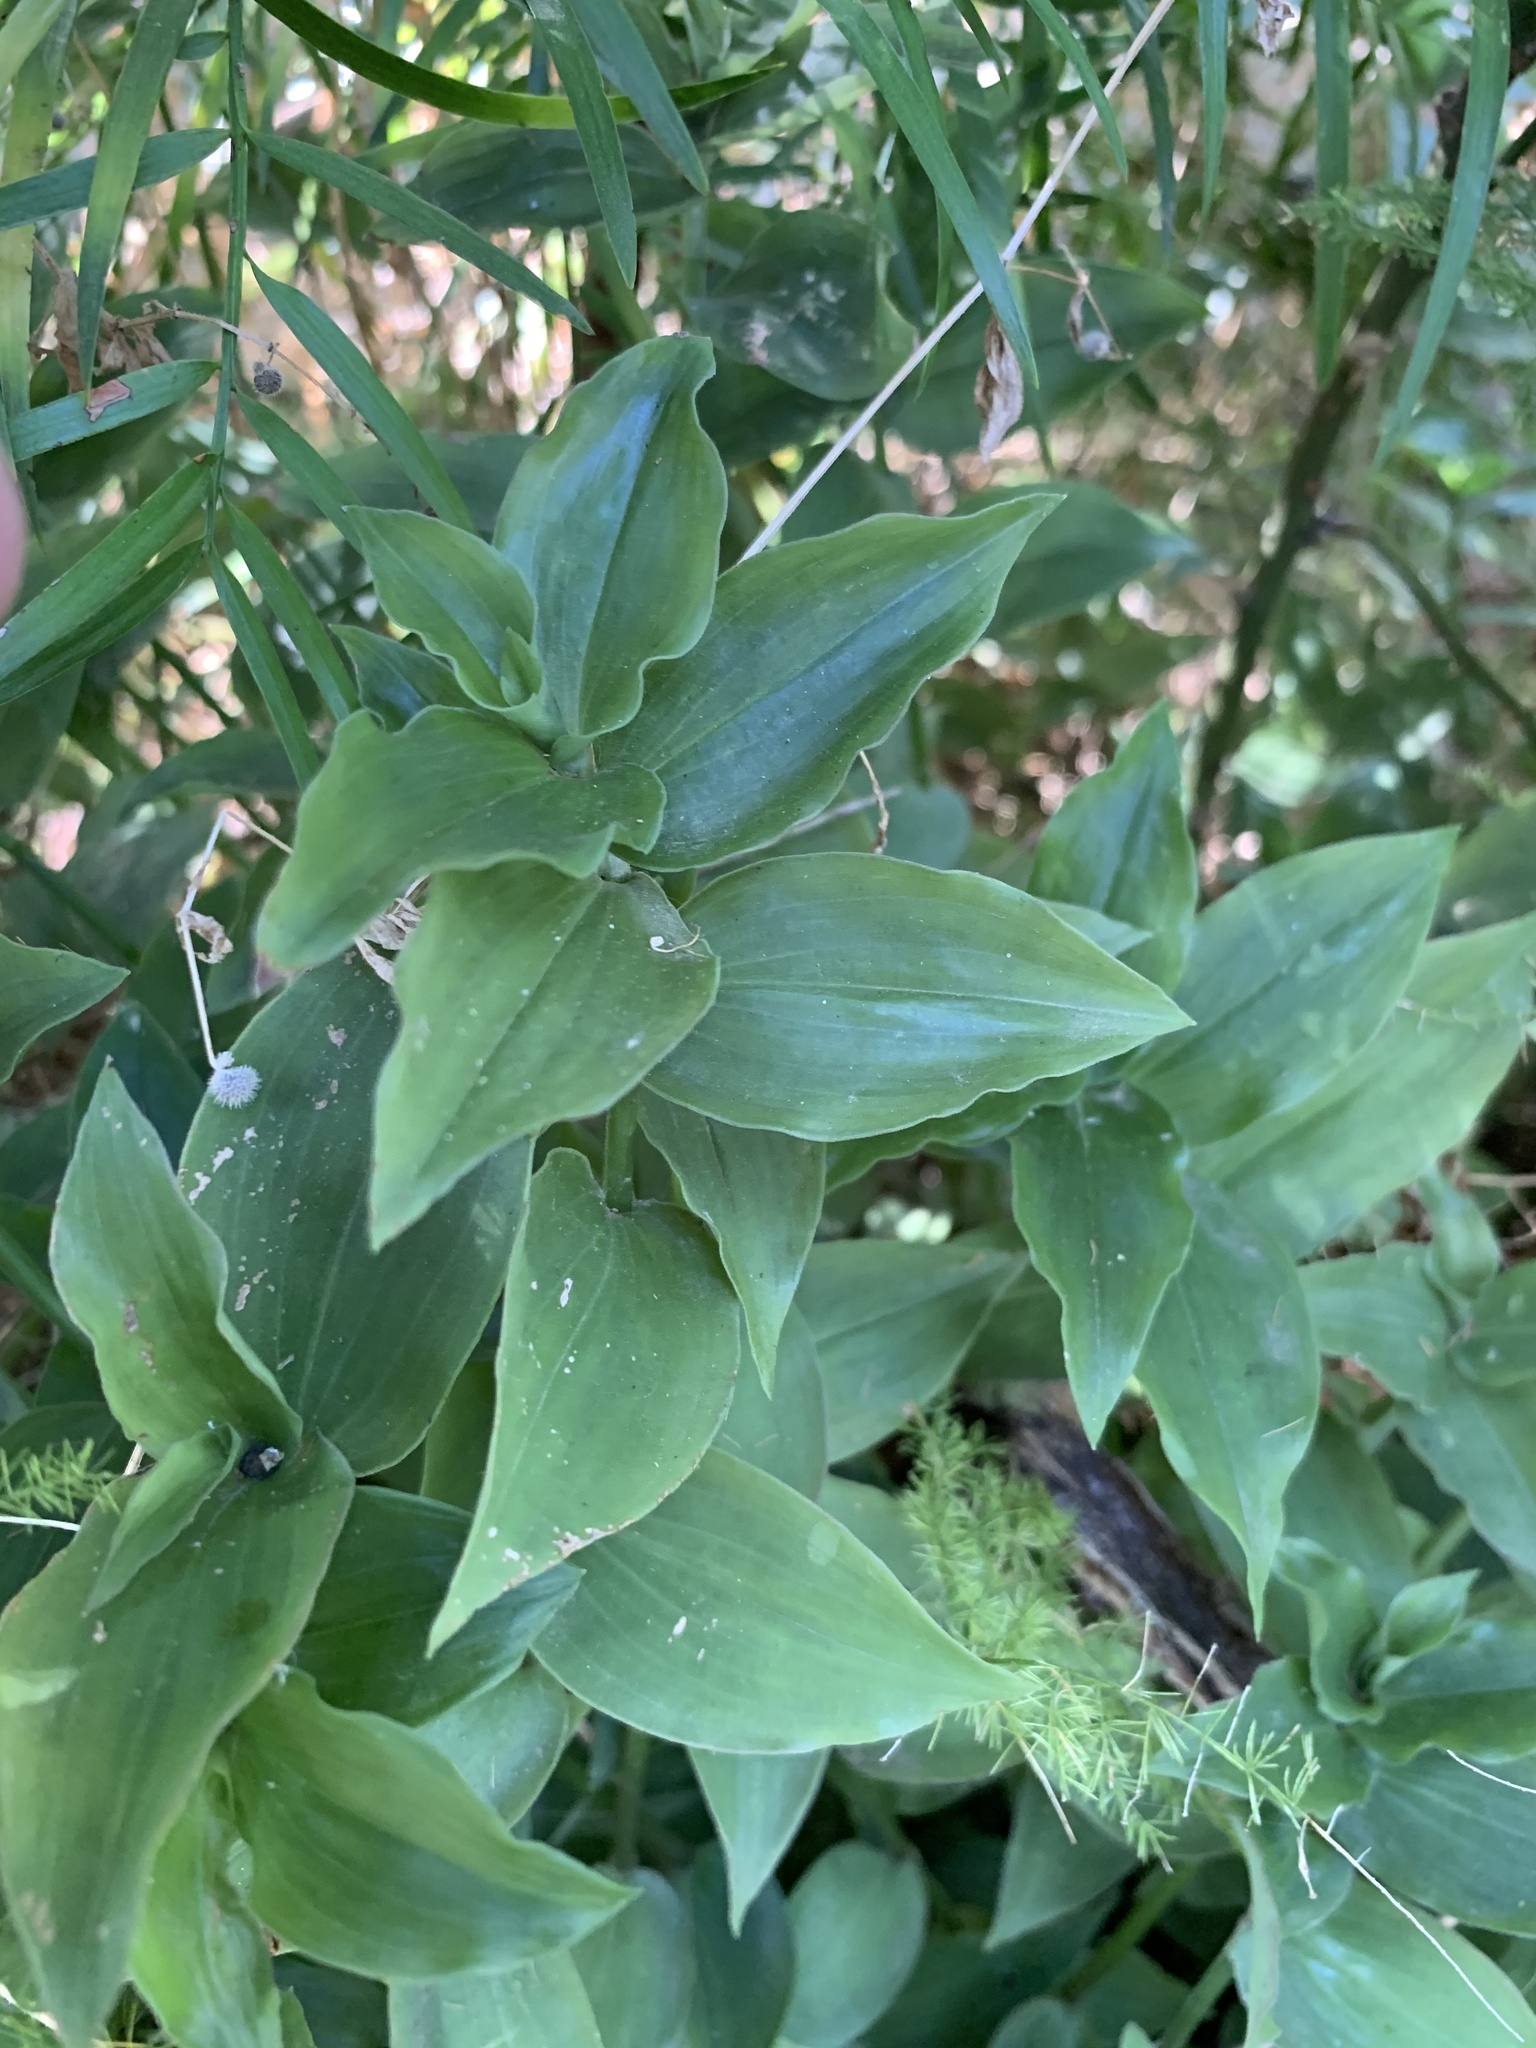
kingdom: Plantae
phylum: Tracheophyta
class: Liliopsida
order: Commelinales
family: Commelinaceae
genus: Tradescantia
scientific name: Tradescantia fluminensis
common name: Wandering-jew
